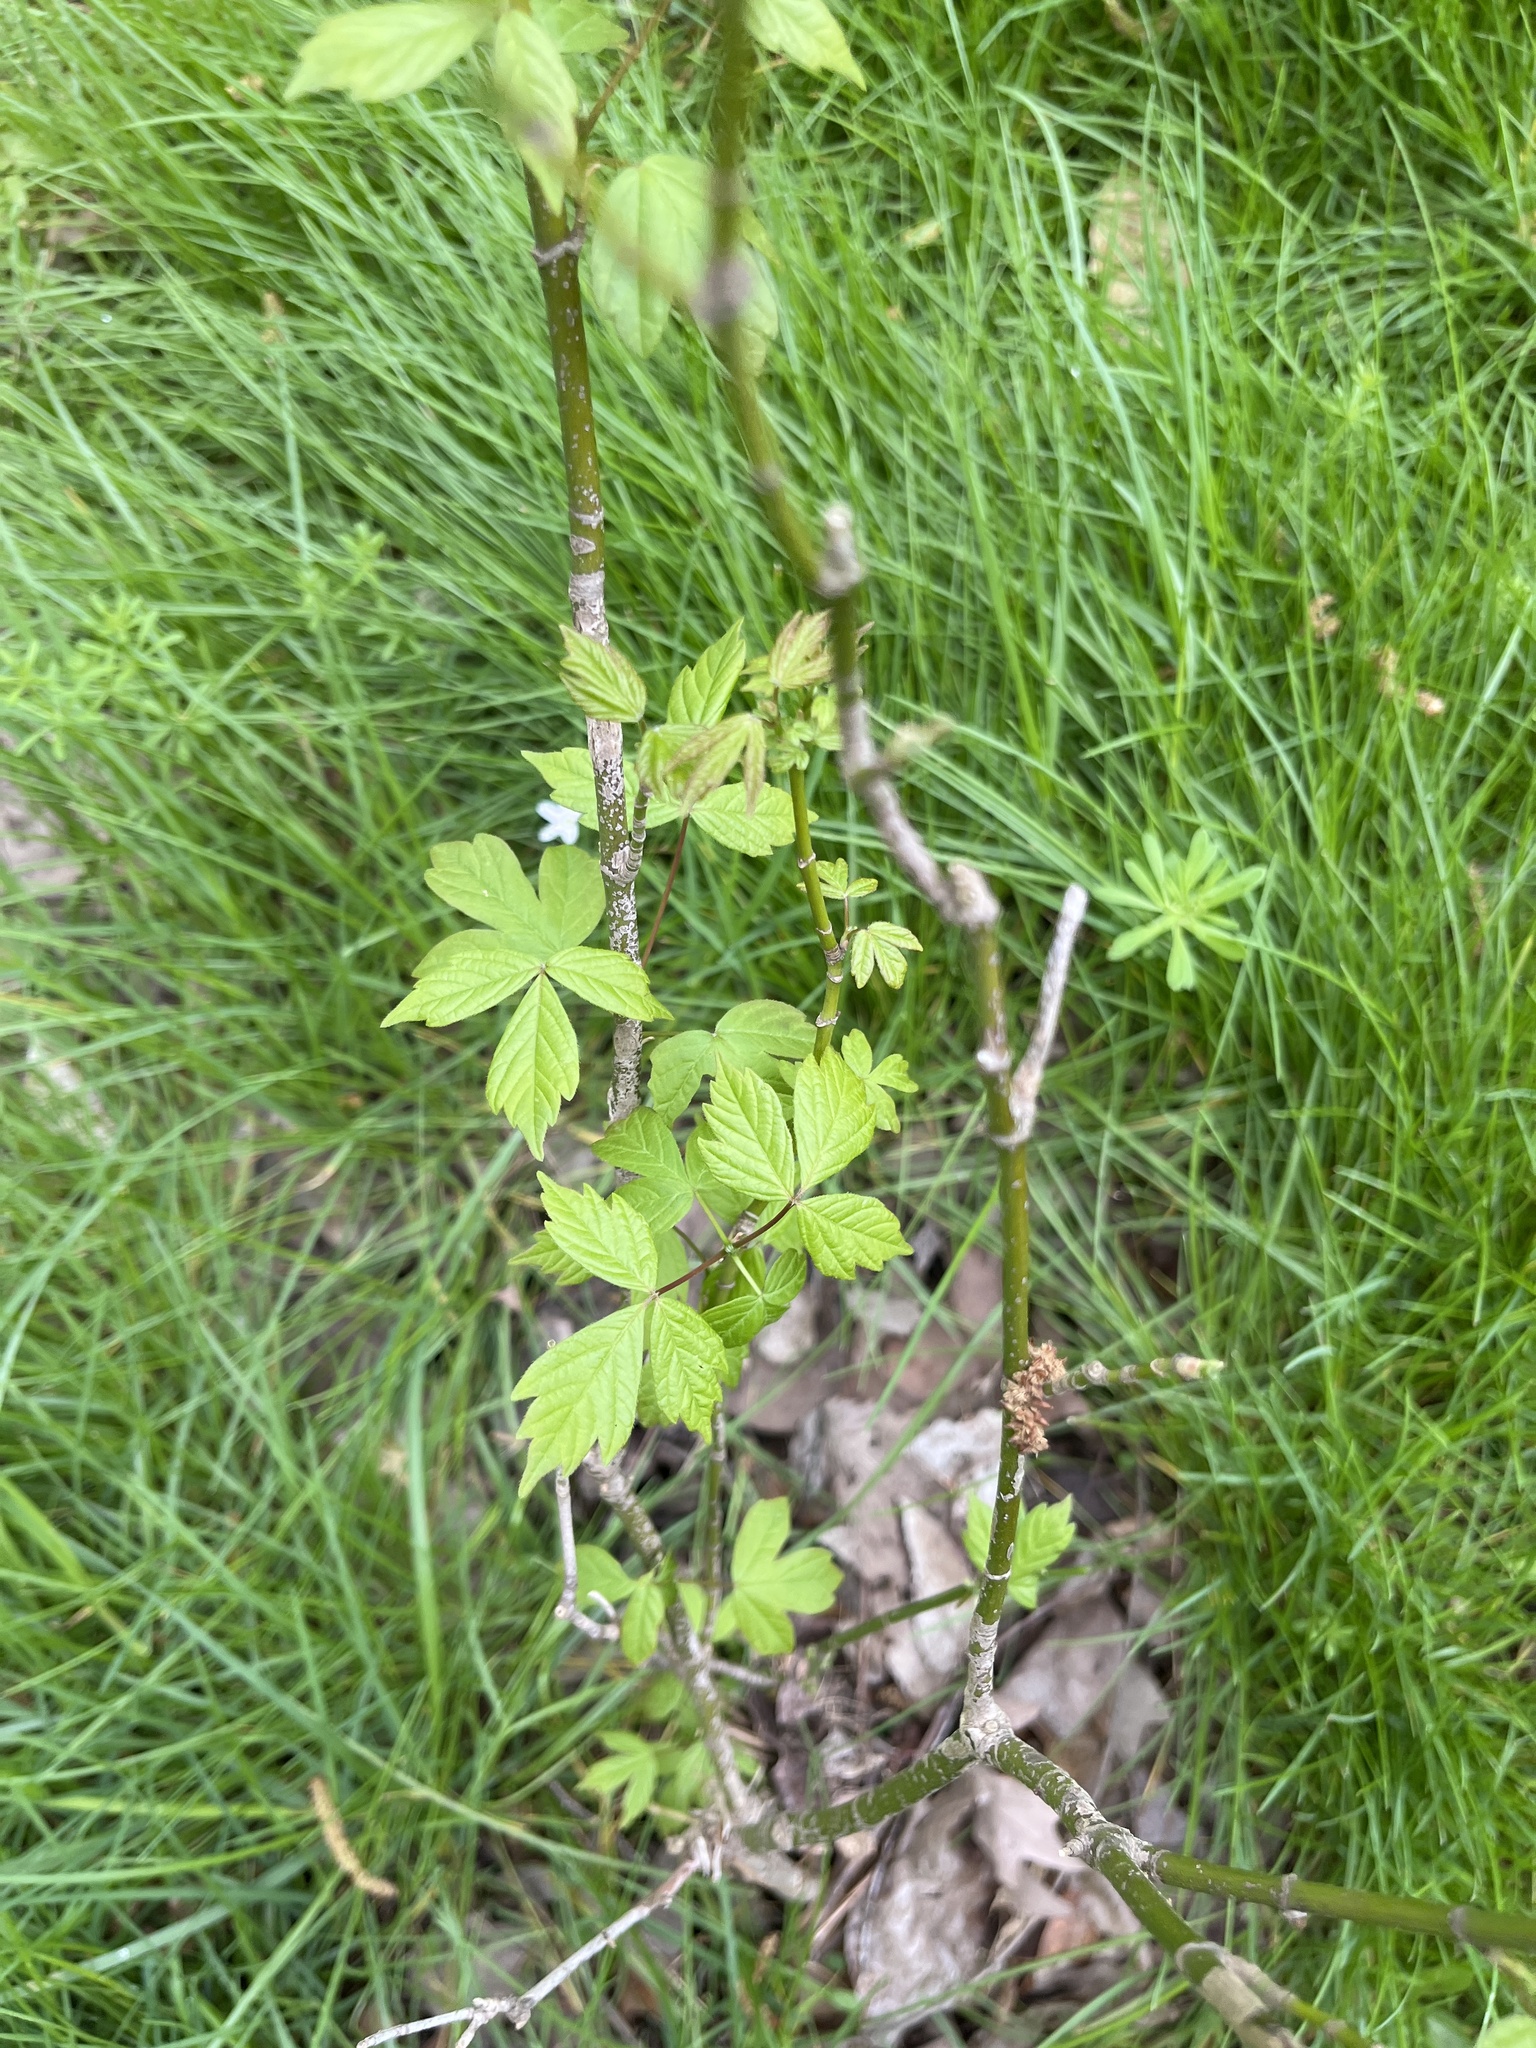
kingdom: Plantae
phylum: Tracheophyta
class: Magnoliopsida
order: Sapindales
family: Sapindaceae
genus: Acer
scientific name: Acer negundo
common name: Ashleaf maple
